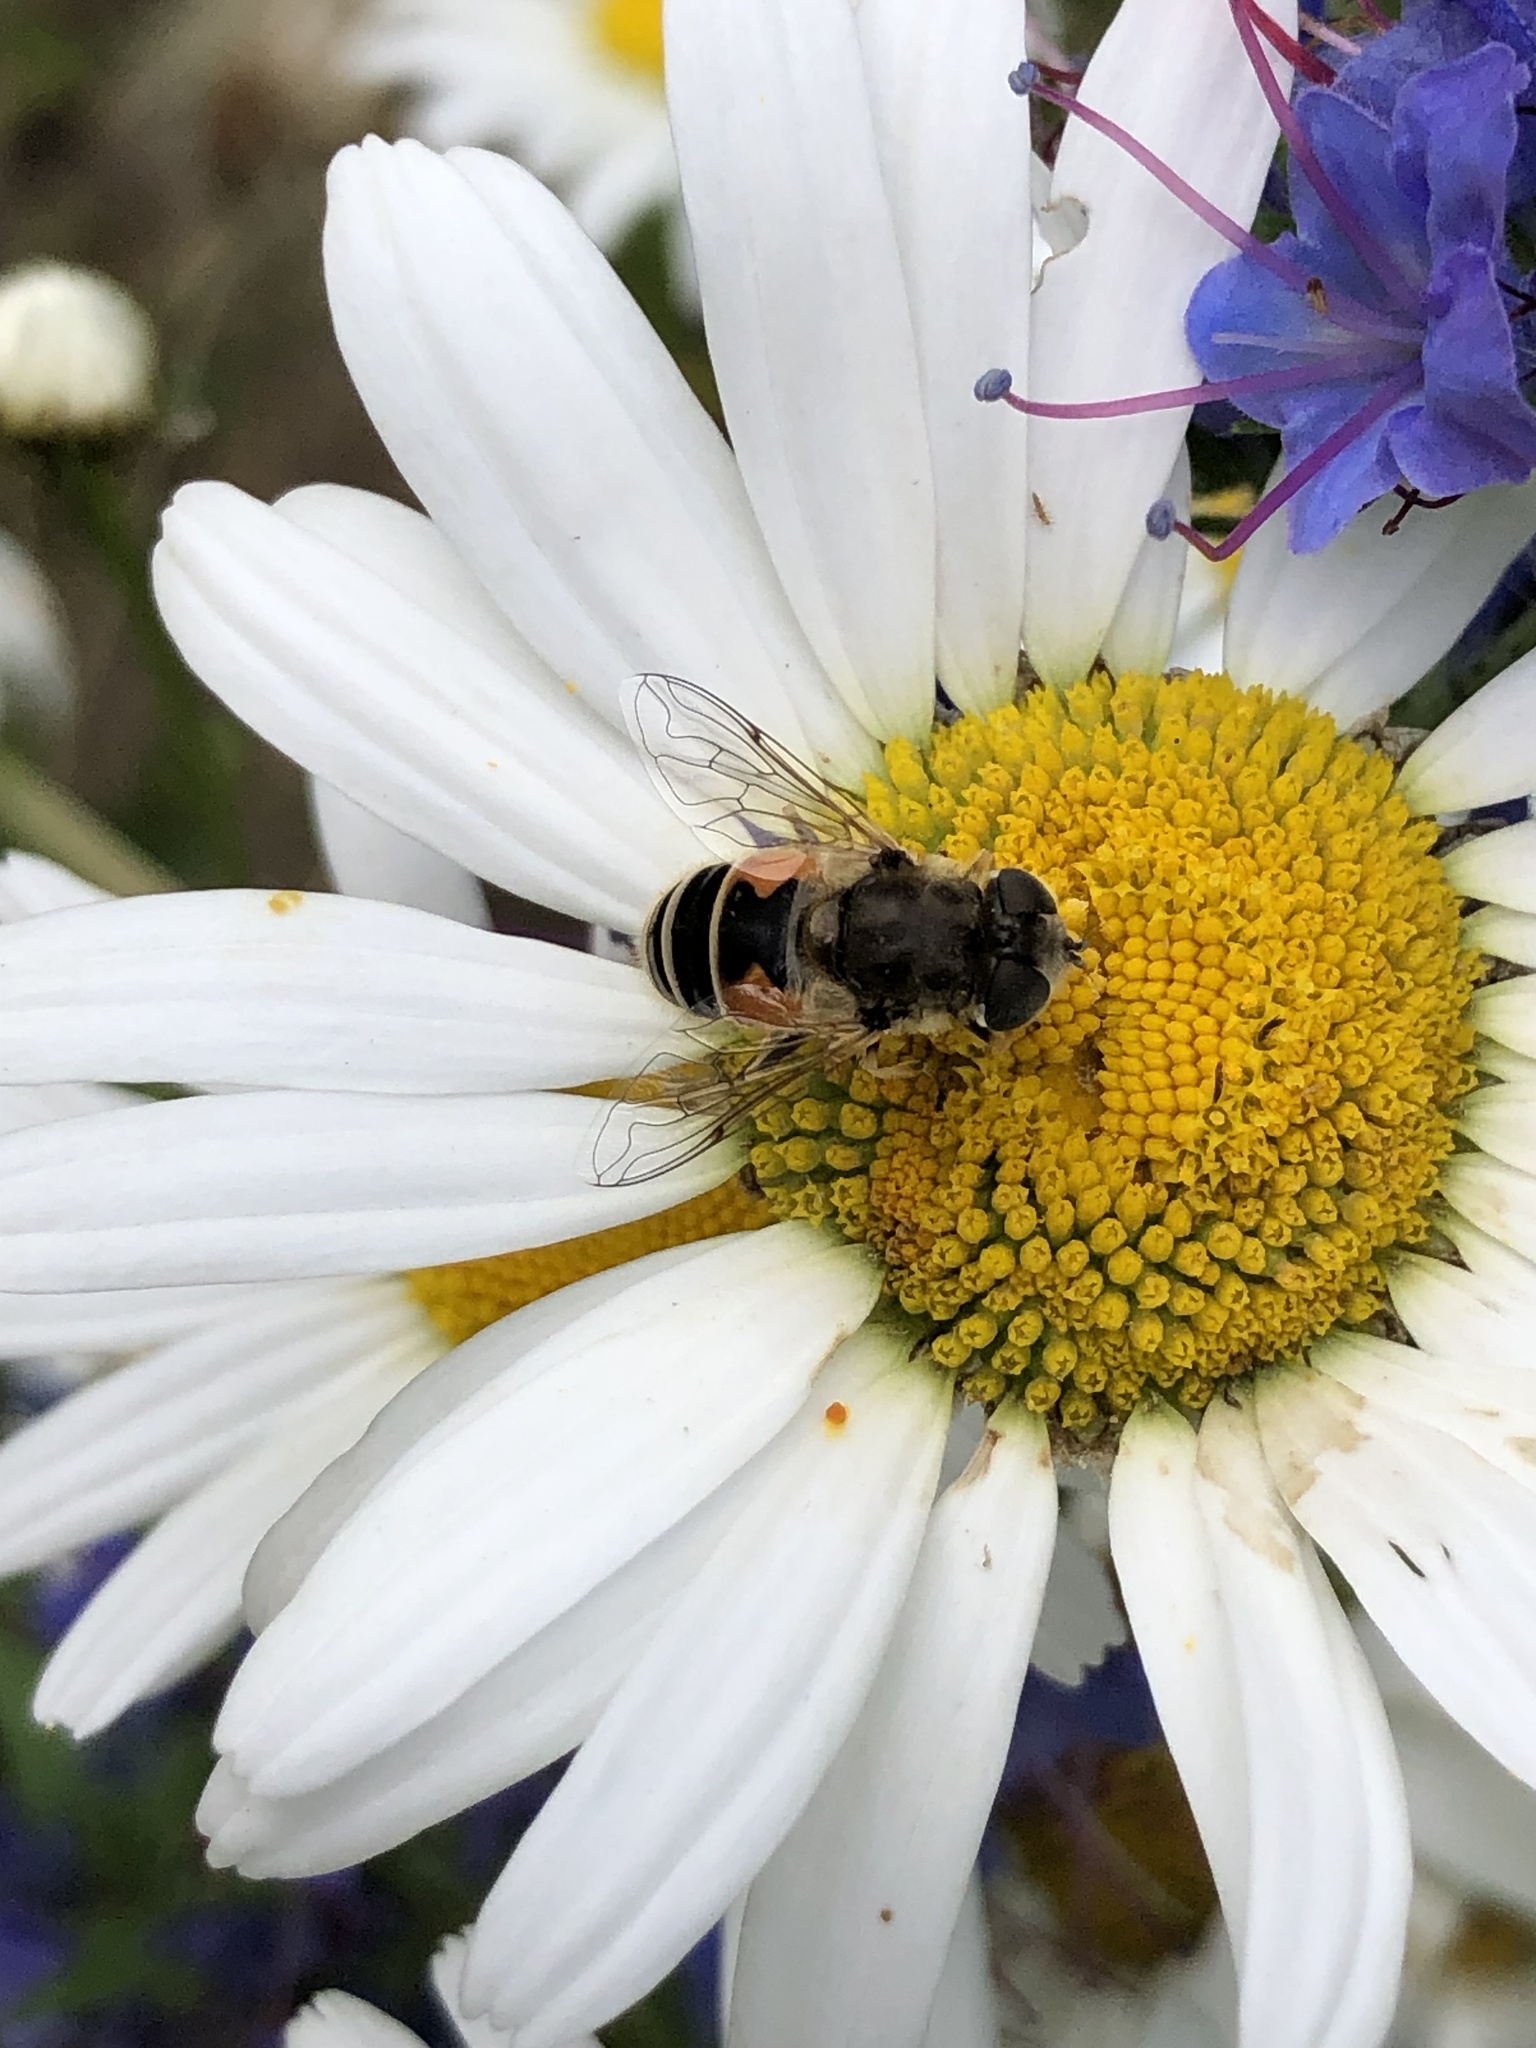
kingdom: Animalia
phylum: Arthropoda
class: Insecta
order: Diptera
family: Syrphidae
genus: Eristalis
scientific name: Eristalis arbustorum
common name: Hover fly
